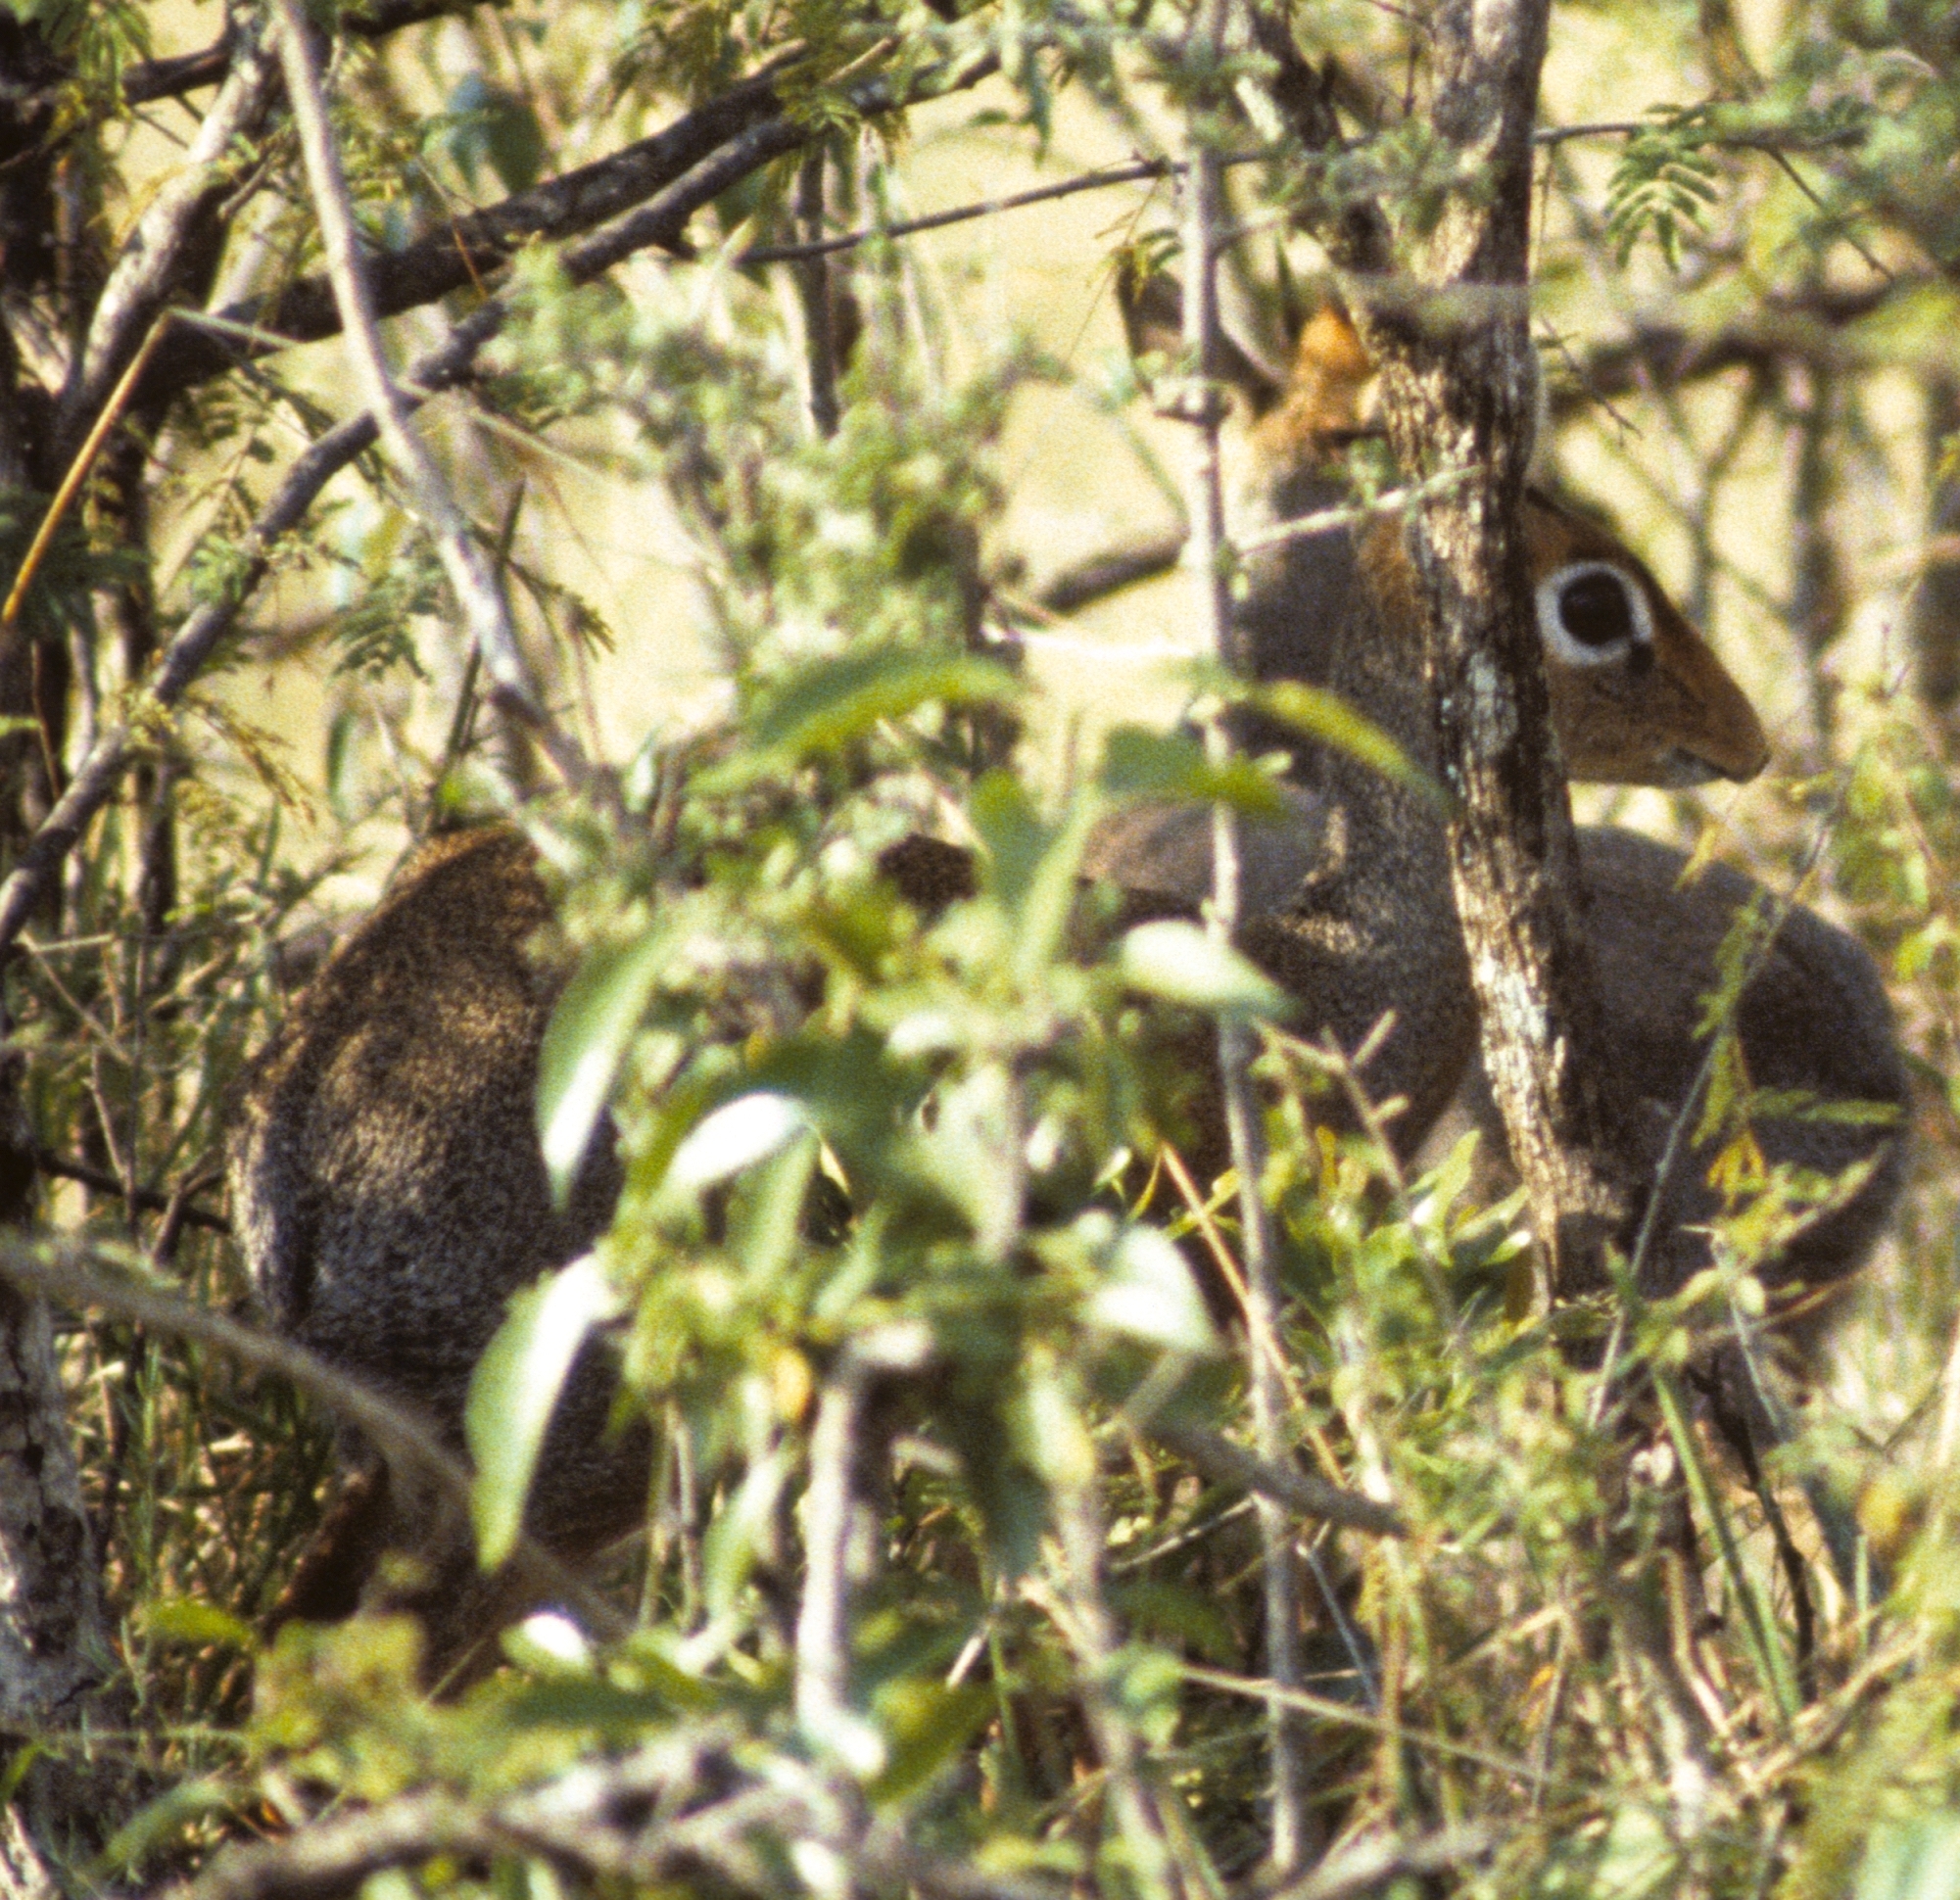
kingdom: Animalia
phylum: Chordata
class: Mammalia
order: Artiodactyla
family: Bovidae
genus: Madoqua
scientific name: Madoqua
